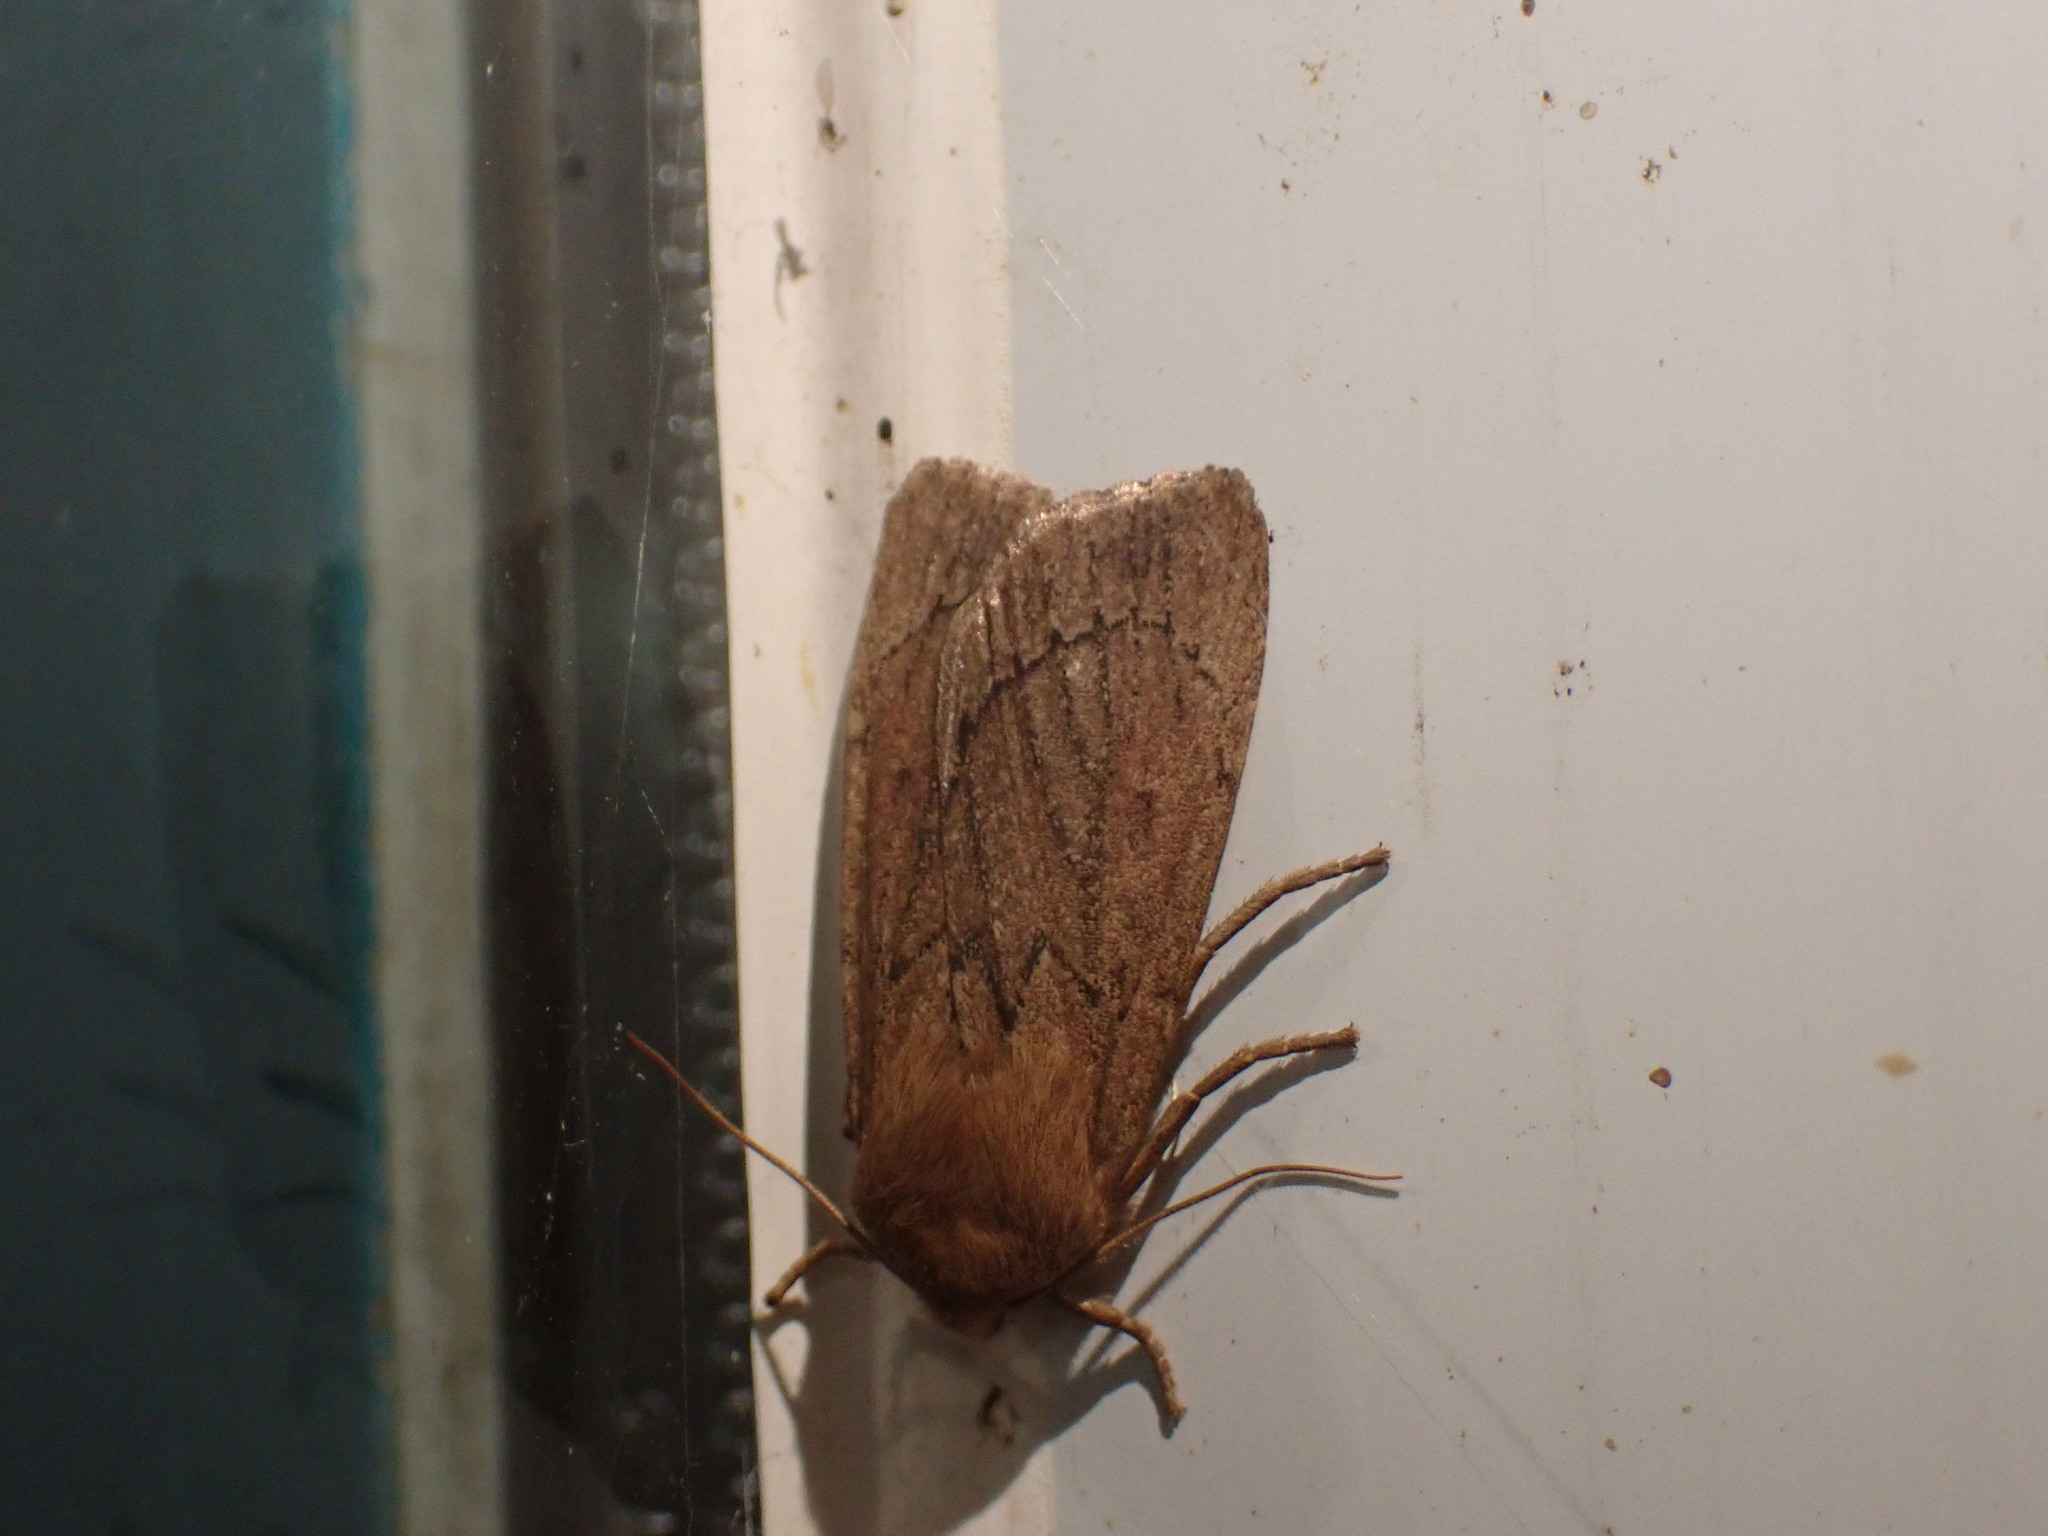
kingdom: Animalia
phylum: Arthropoda
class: Insecta
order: Lepidoptera
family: Noctuidae
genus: Ufeus
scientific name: Ufeus satyricus
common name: Brown satyr moth
